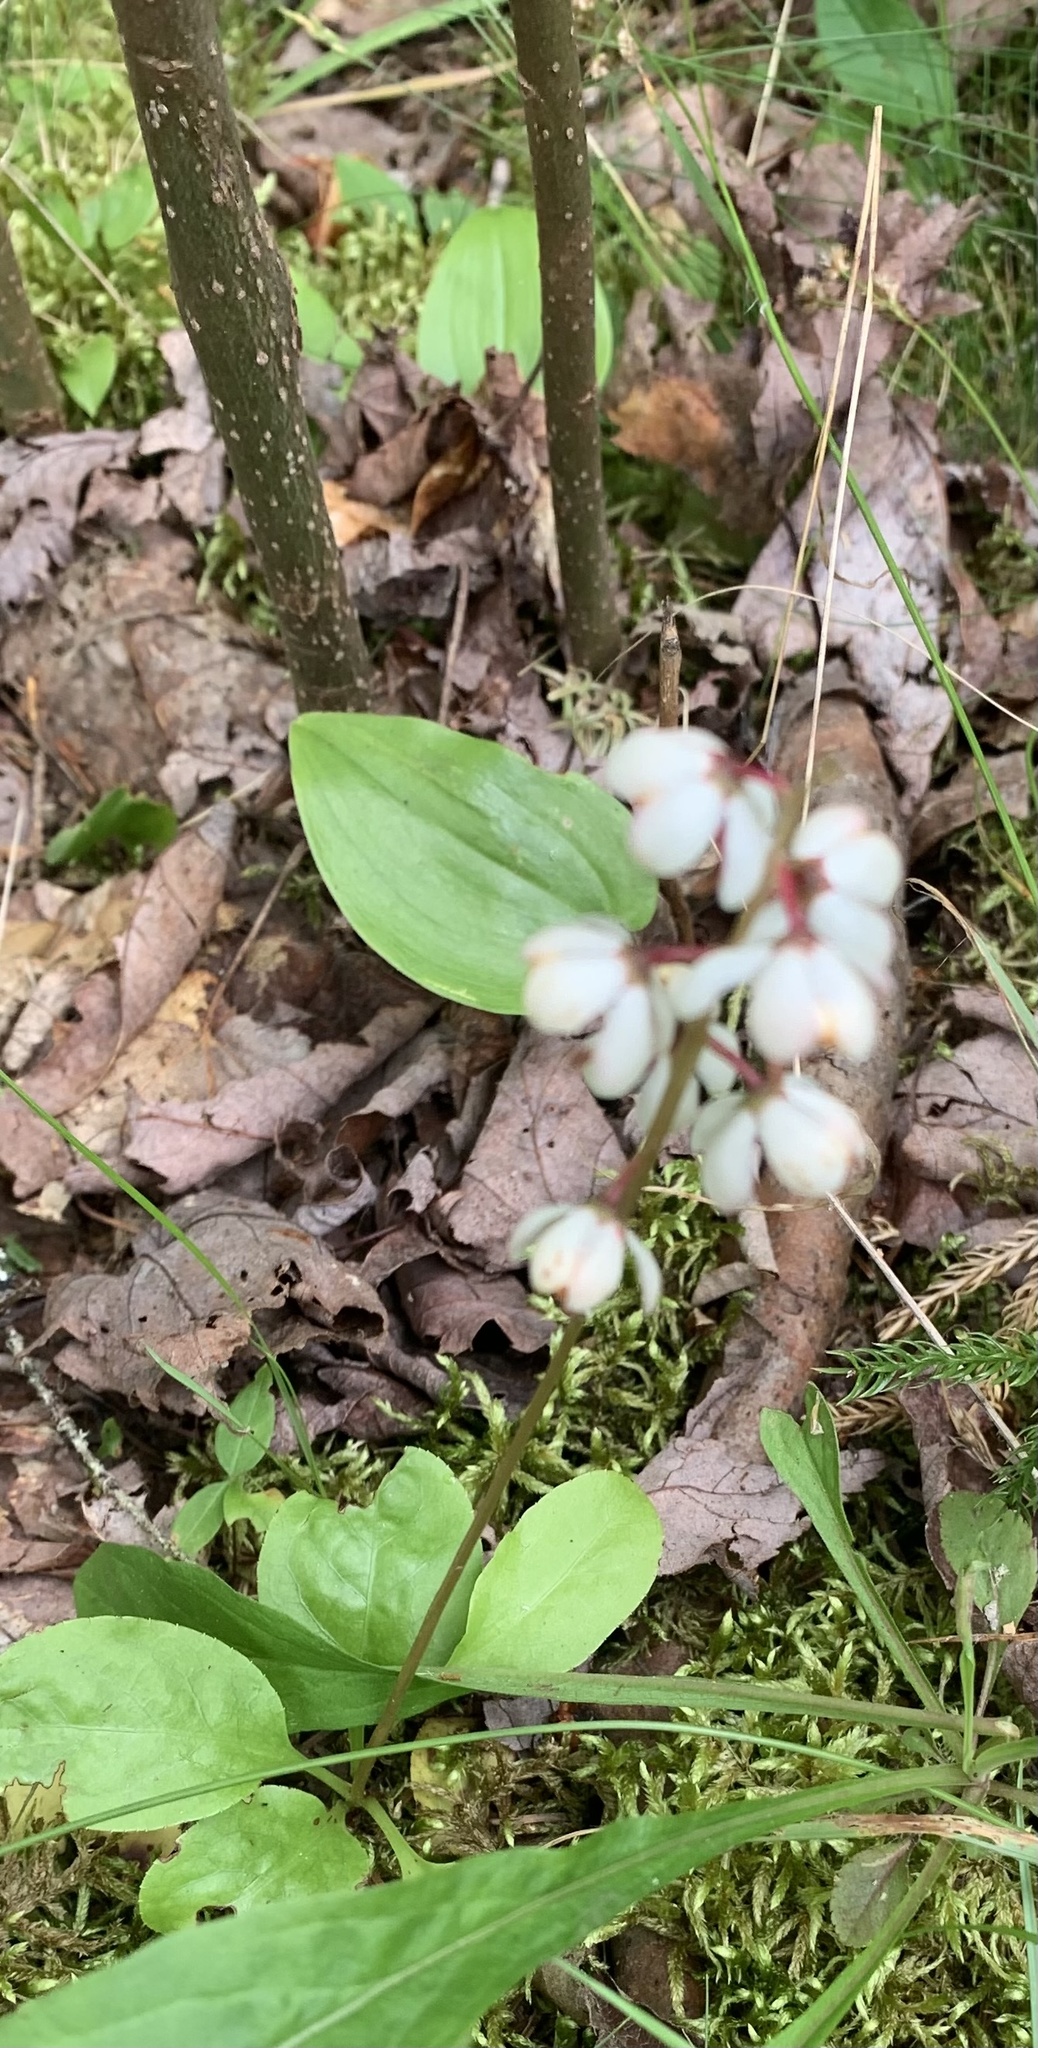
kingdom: Plantae
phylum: Tracheophyta
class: Magnoliopsida
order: Ericales
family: Ericaceae
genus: Pyrola
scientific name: Pyrola elliptica
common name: Shinleaf
